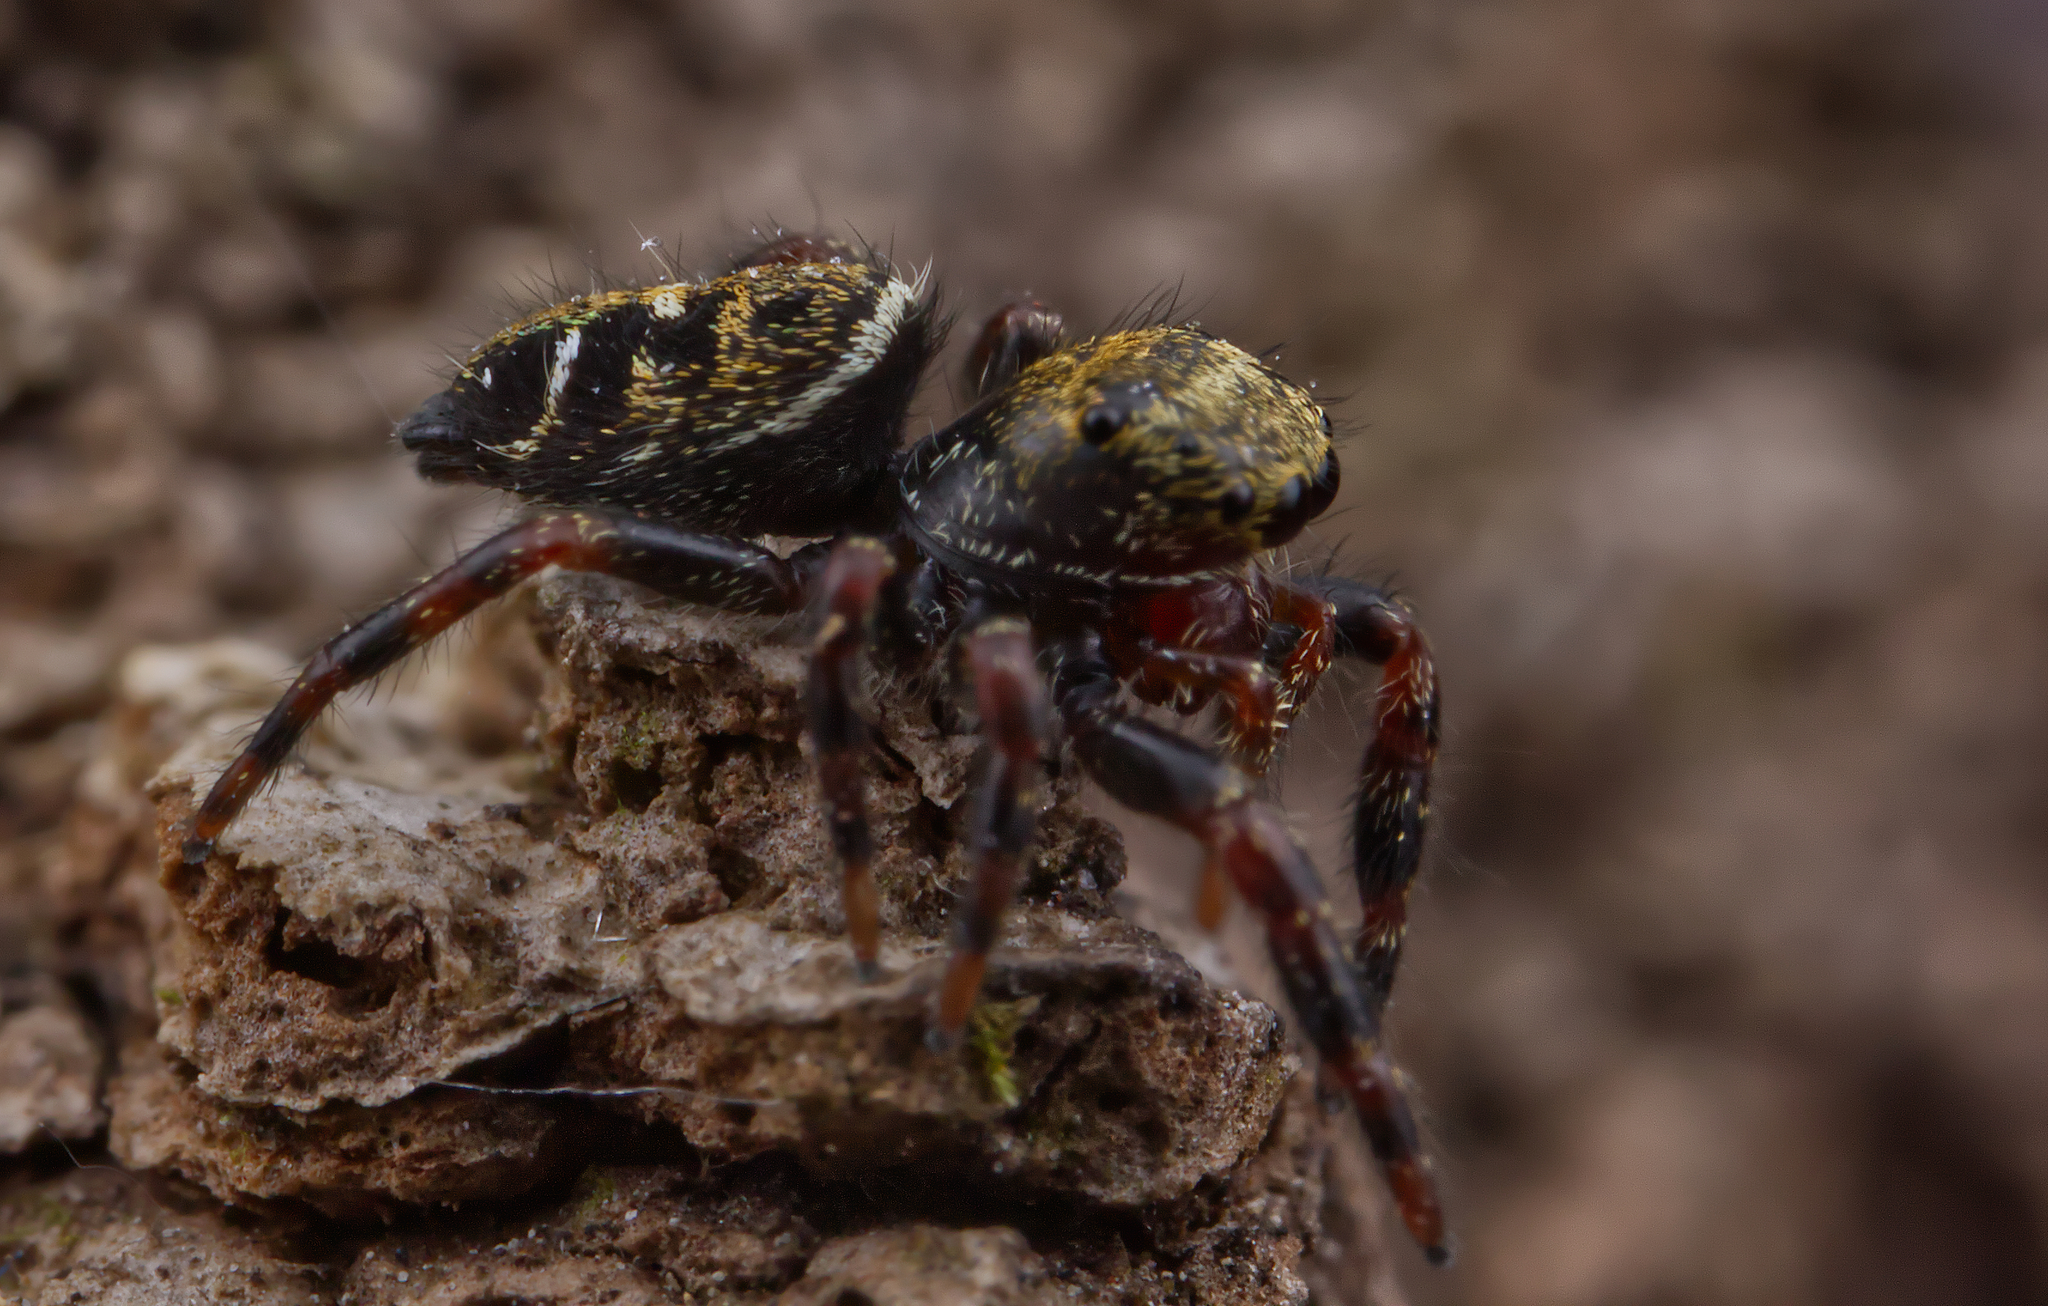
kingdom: Animalia
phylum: Arthropoda
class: Arachnida
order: Araneae
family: Salticidae
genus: Phidippus
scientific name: Phidippus audax
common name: Bold jumper
